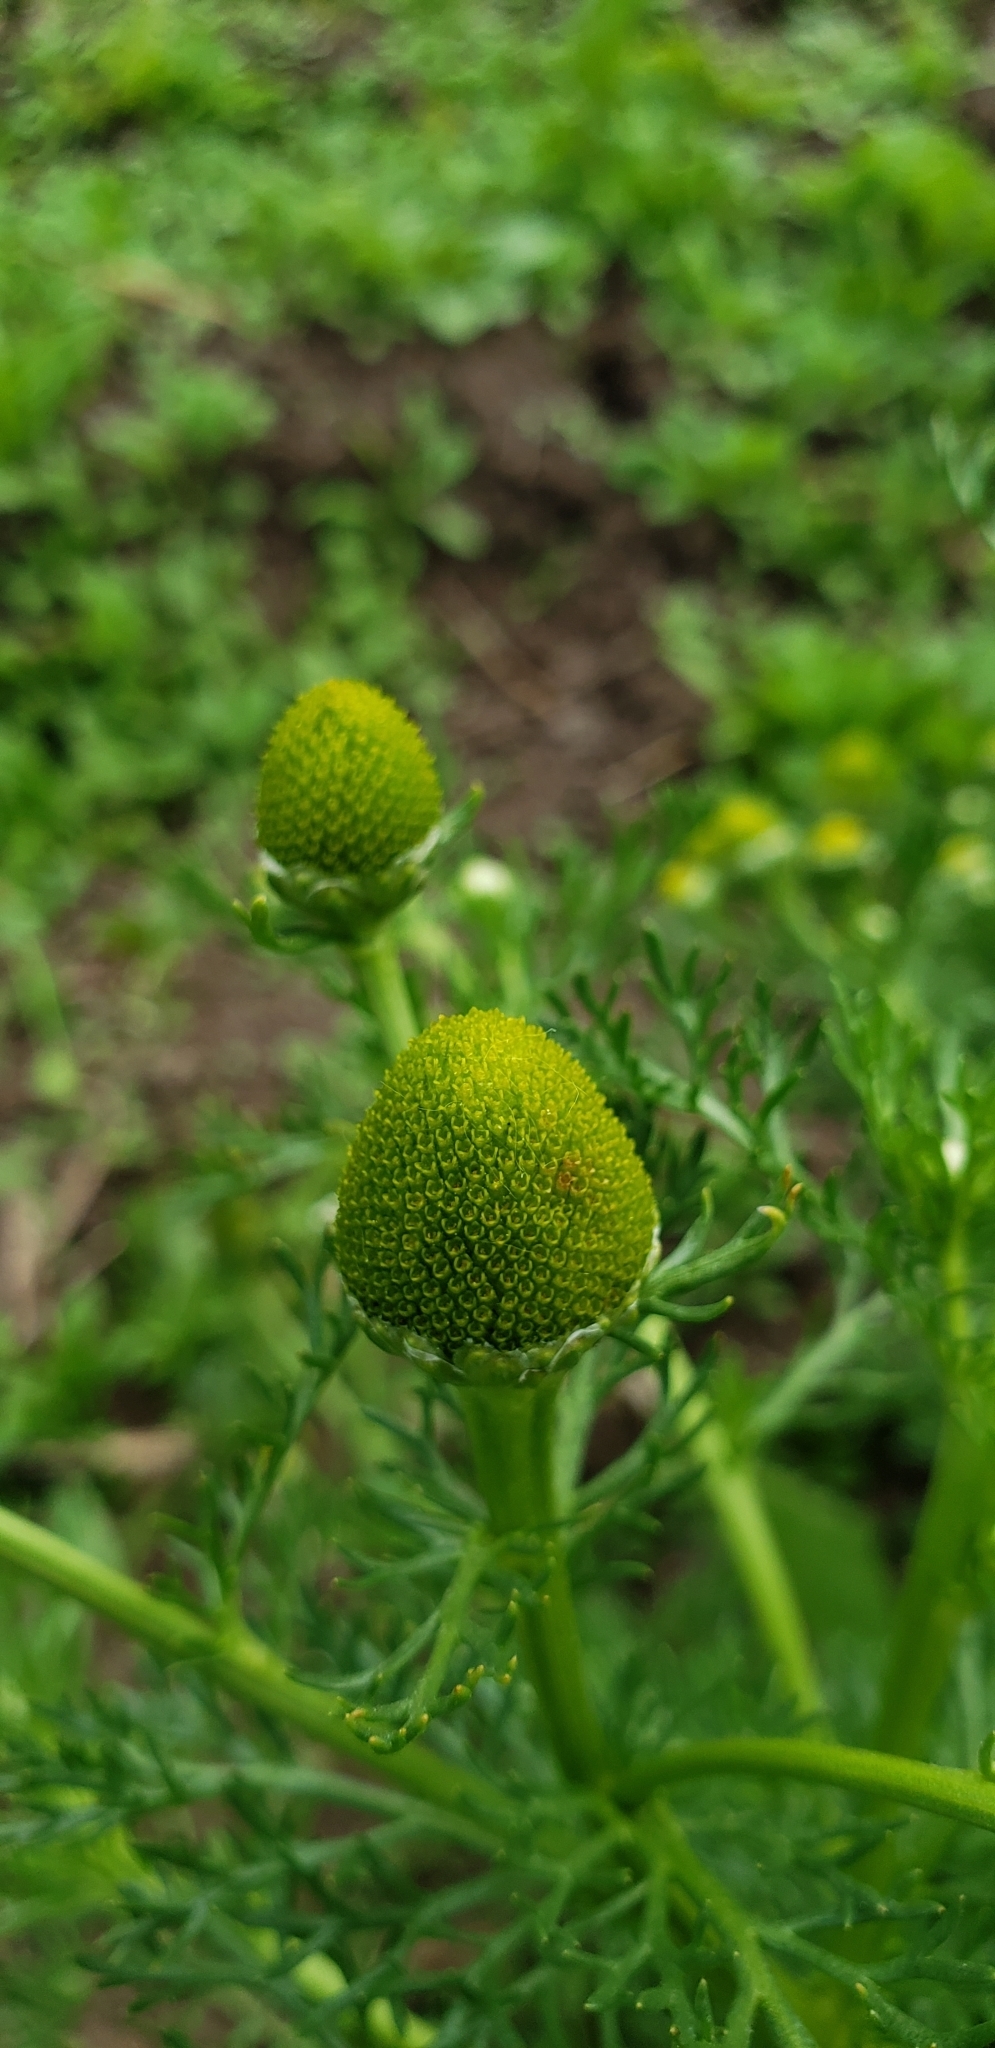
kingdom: Plantae
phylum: Tracheophyta
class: Magnoliopsida
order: Asterales
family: Asteraceae
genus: Matricaria
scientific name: Matricaria discoidea
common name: Disc mayweed
